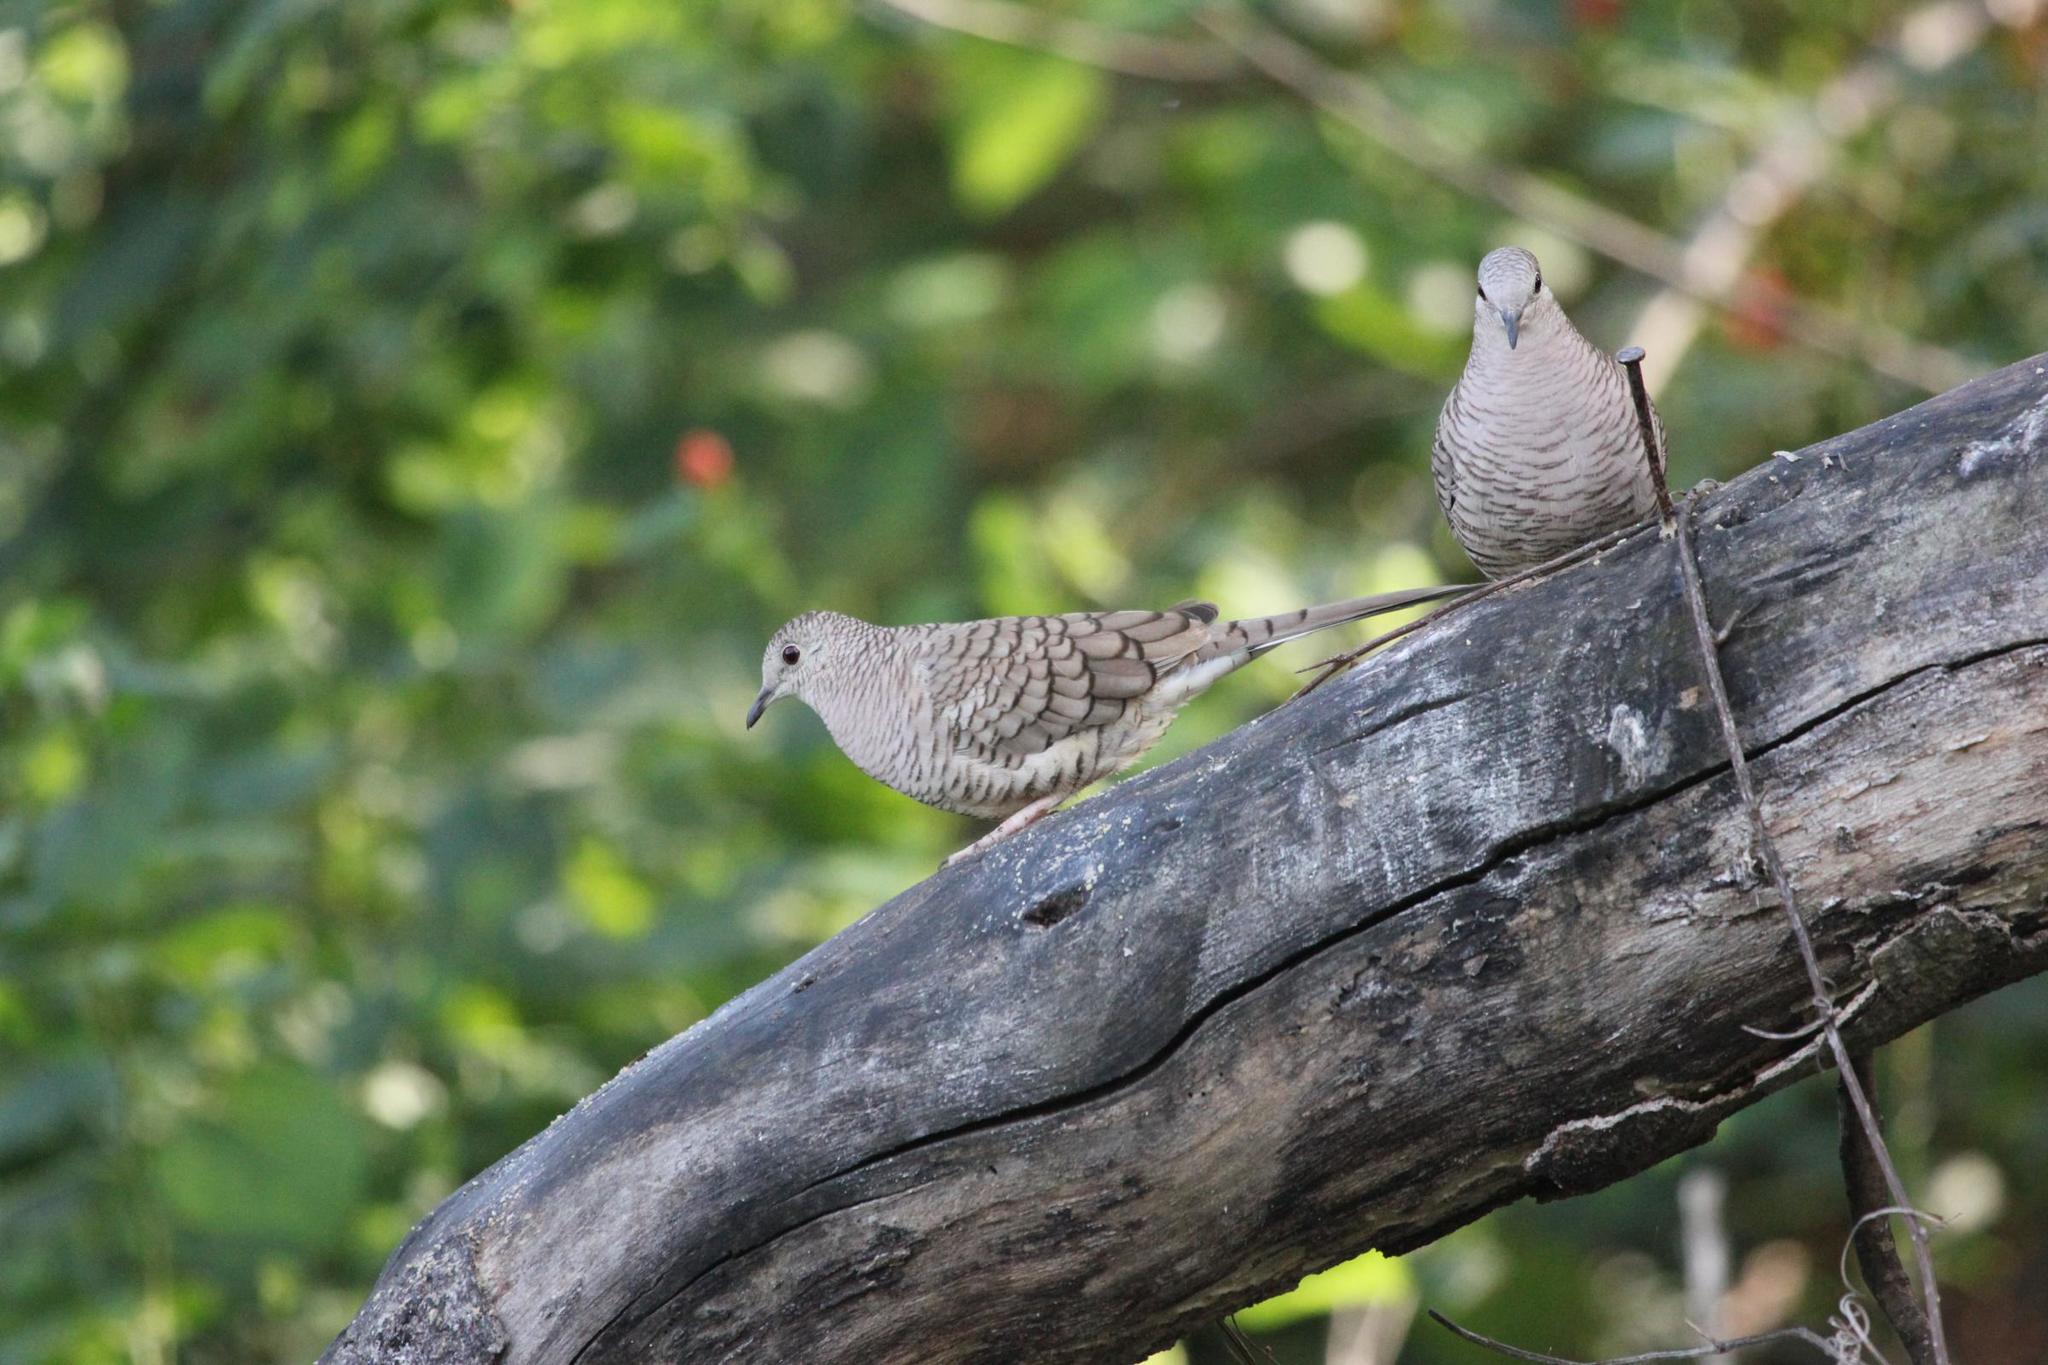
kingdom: Animalia
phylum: Chordata
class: Aves
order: Columbiformes
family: Columbidae
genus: Columbina
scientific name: Columbina inca
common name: Inca dove
